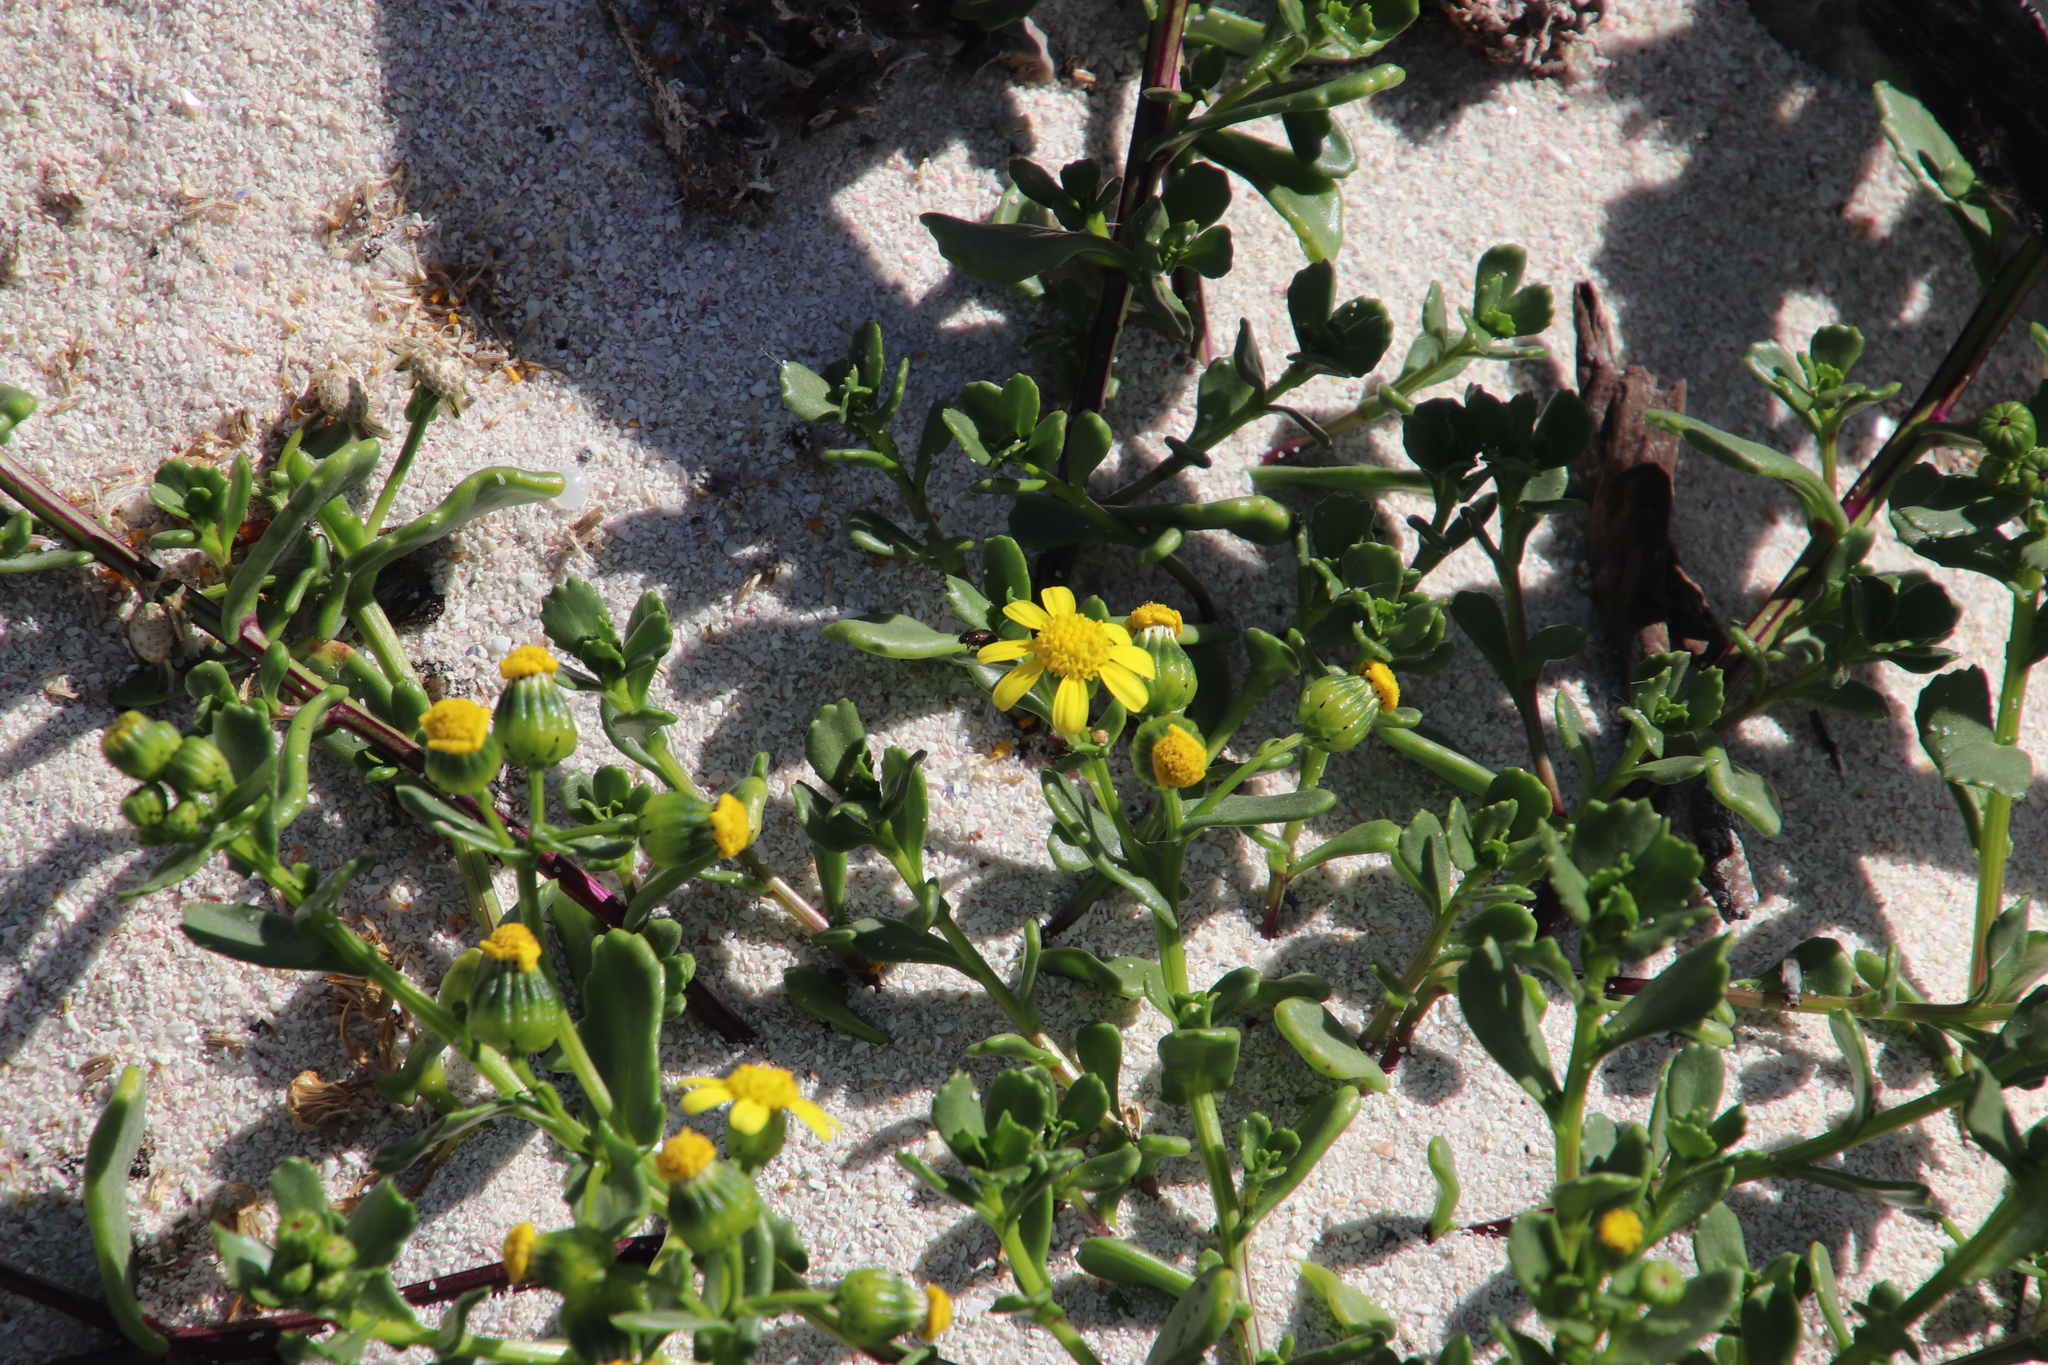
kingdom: Plantae
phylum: Tracheophyta
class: Magnoliopsida
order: Asterales
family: Asteraceae
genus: Senecio
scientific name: Senecio maritimus
